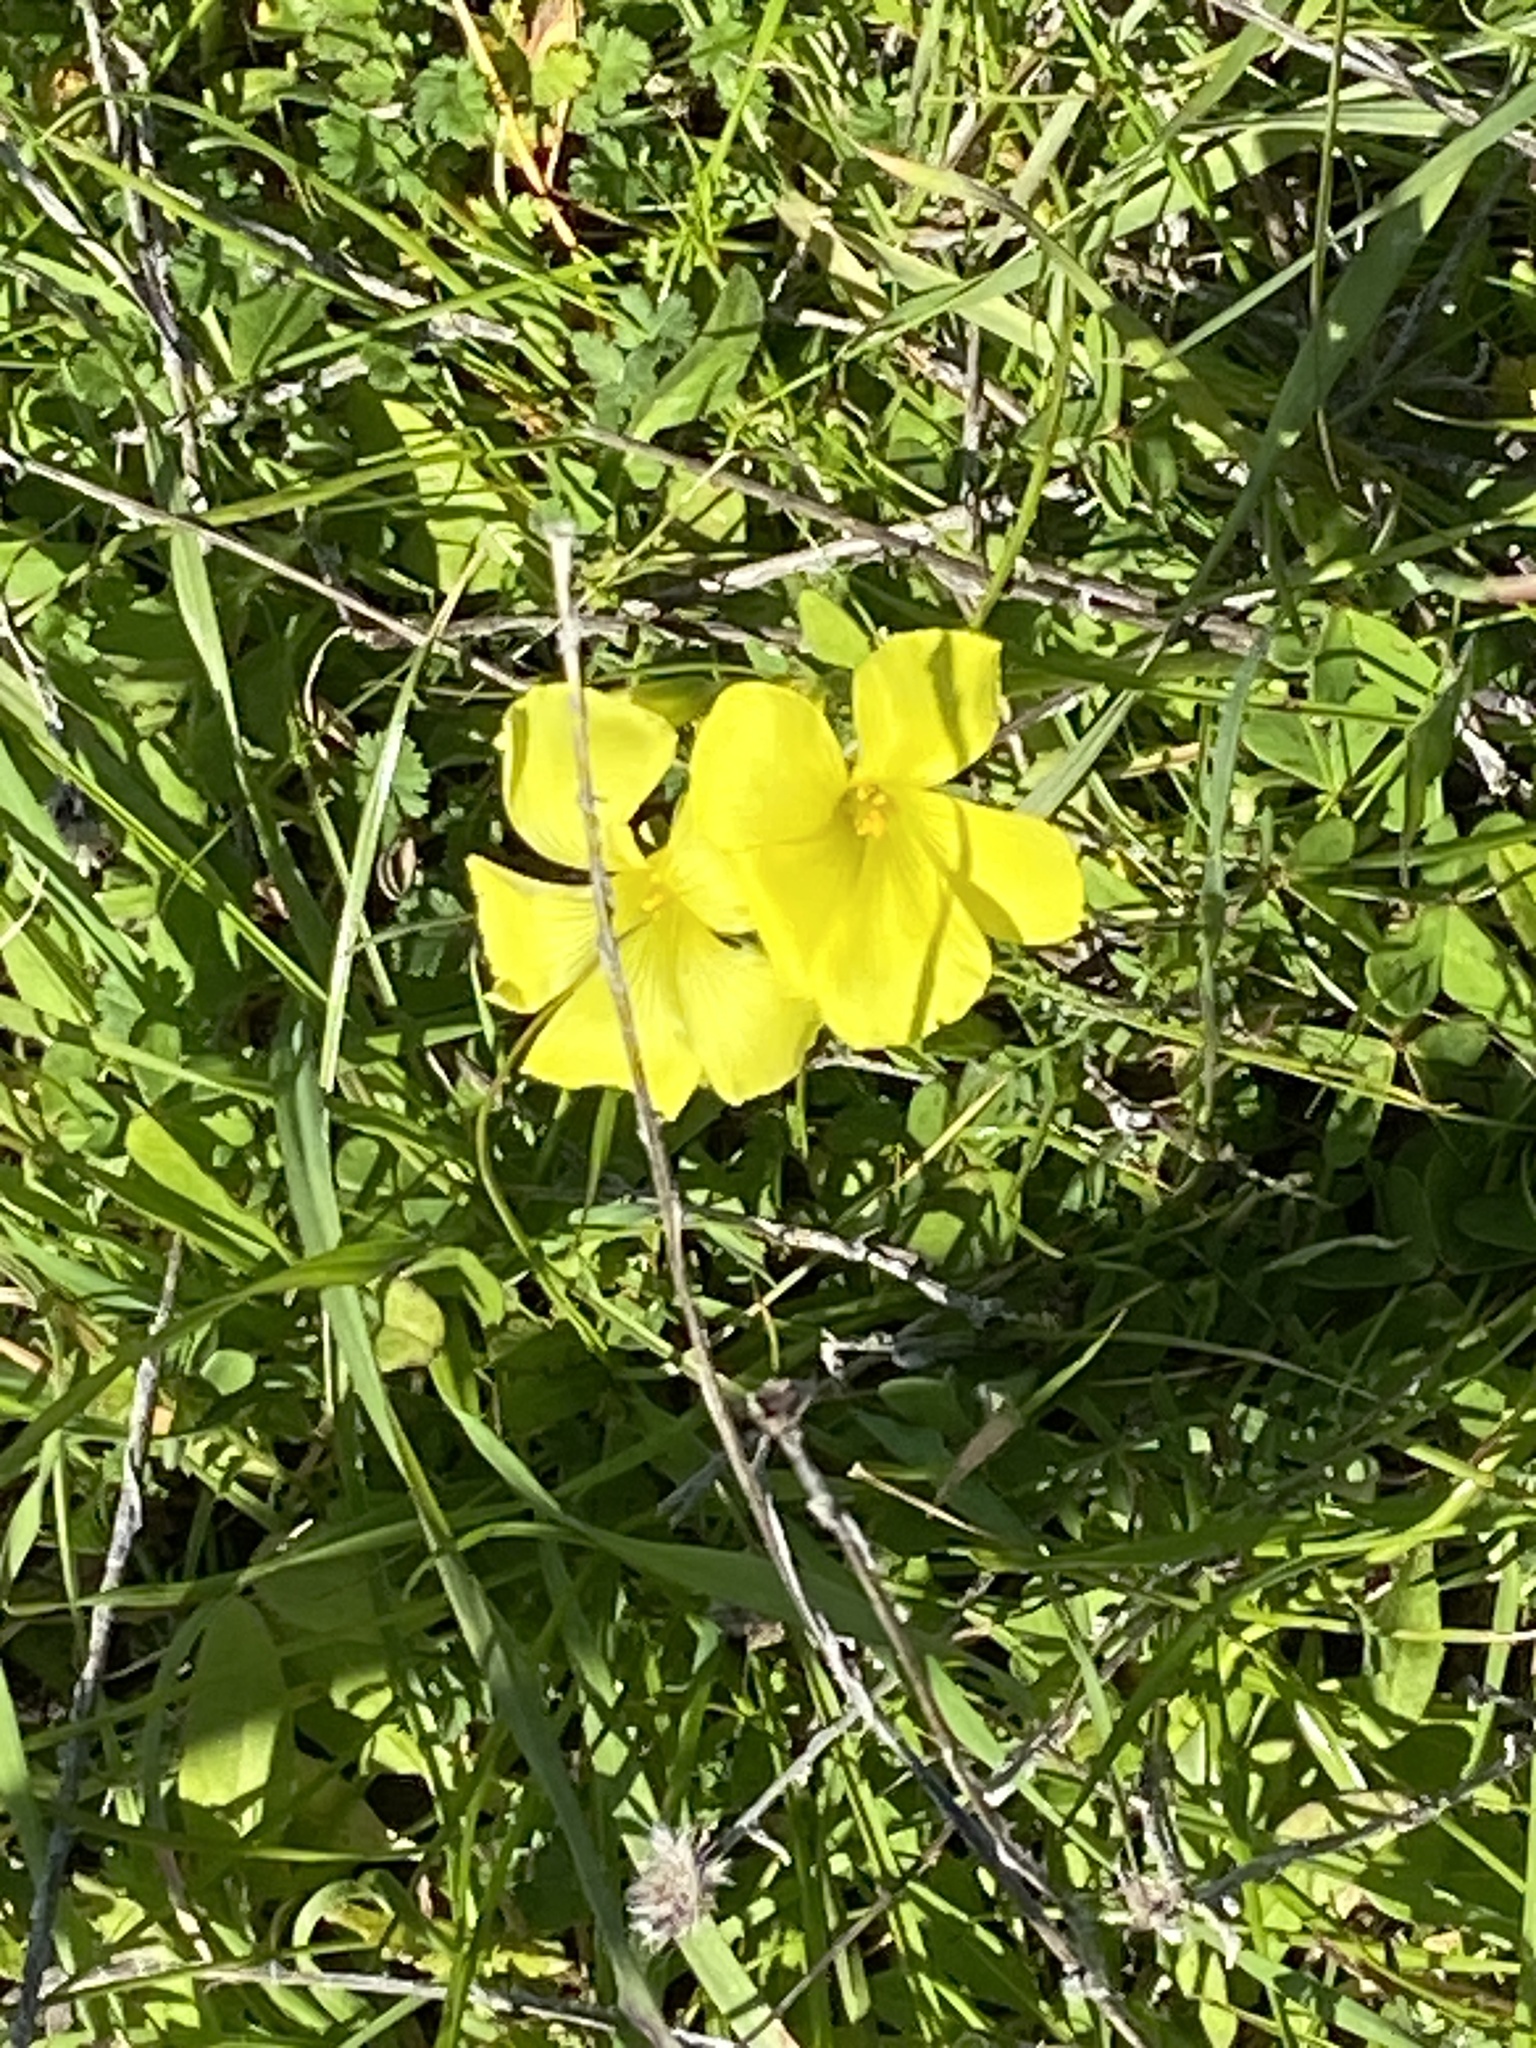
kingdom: Plantae
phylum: Tracheophyta
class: Magnoliopsida
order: Oxalidales
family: Oxalidaceae
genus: Oxalis
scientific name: Oxalis pes-caprae
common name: Bermuda-buttercup
